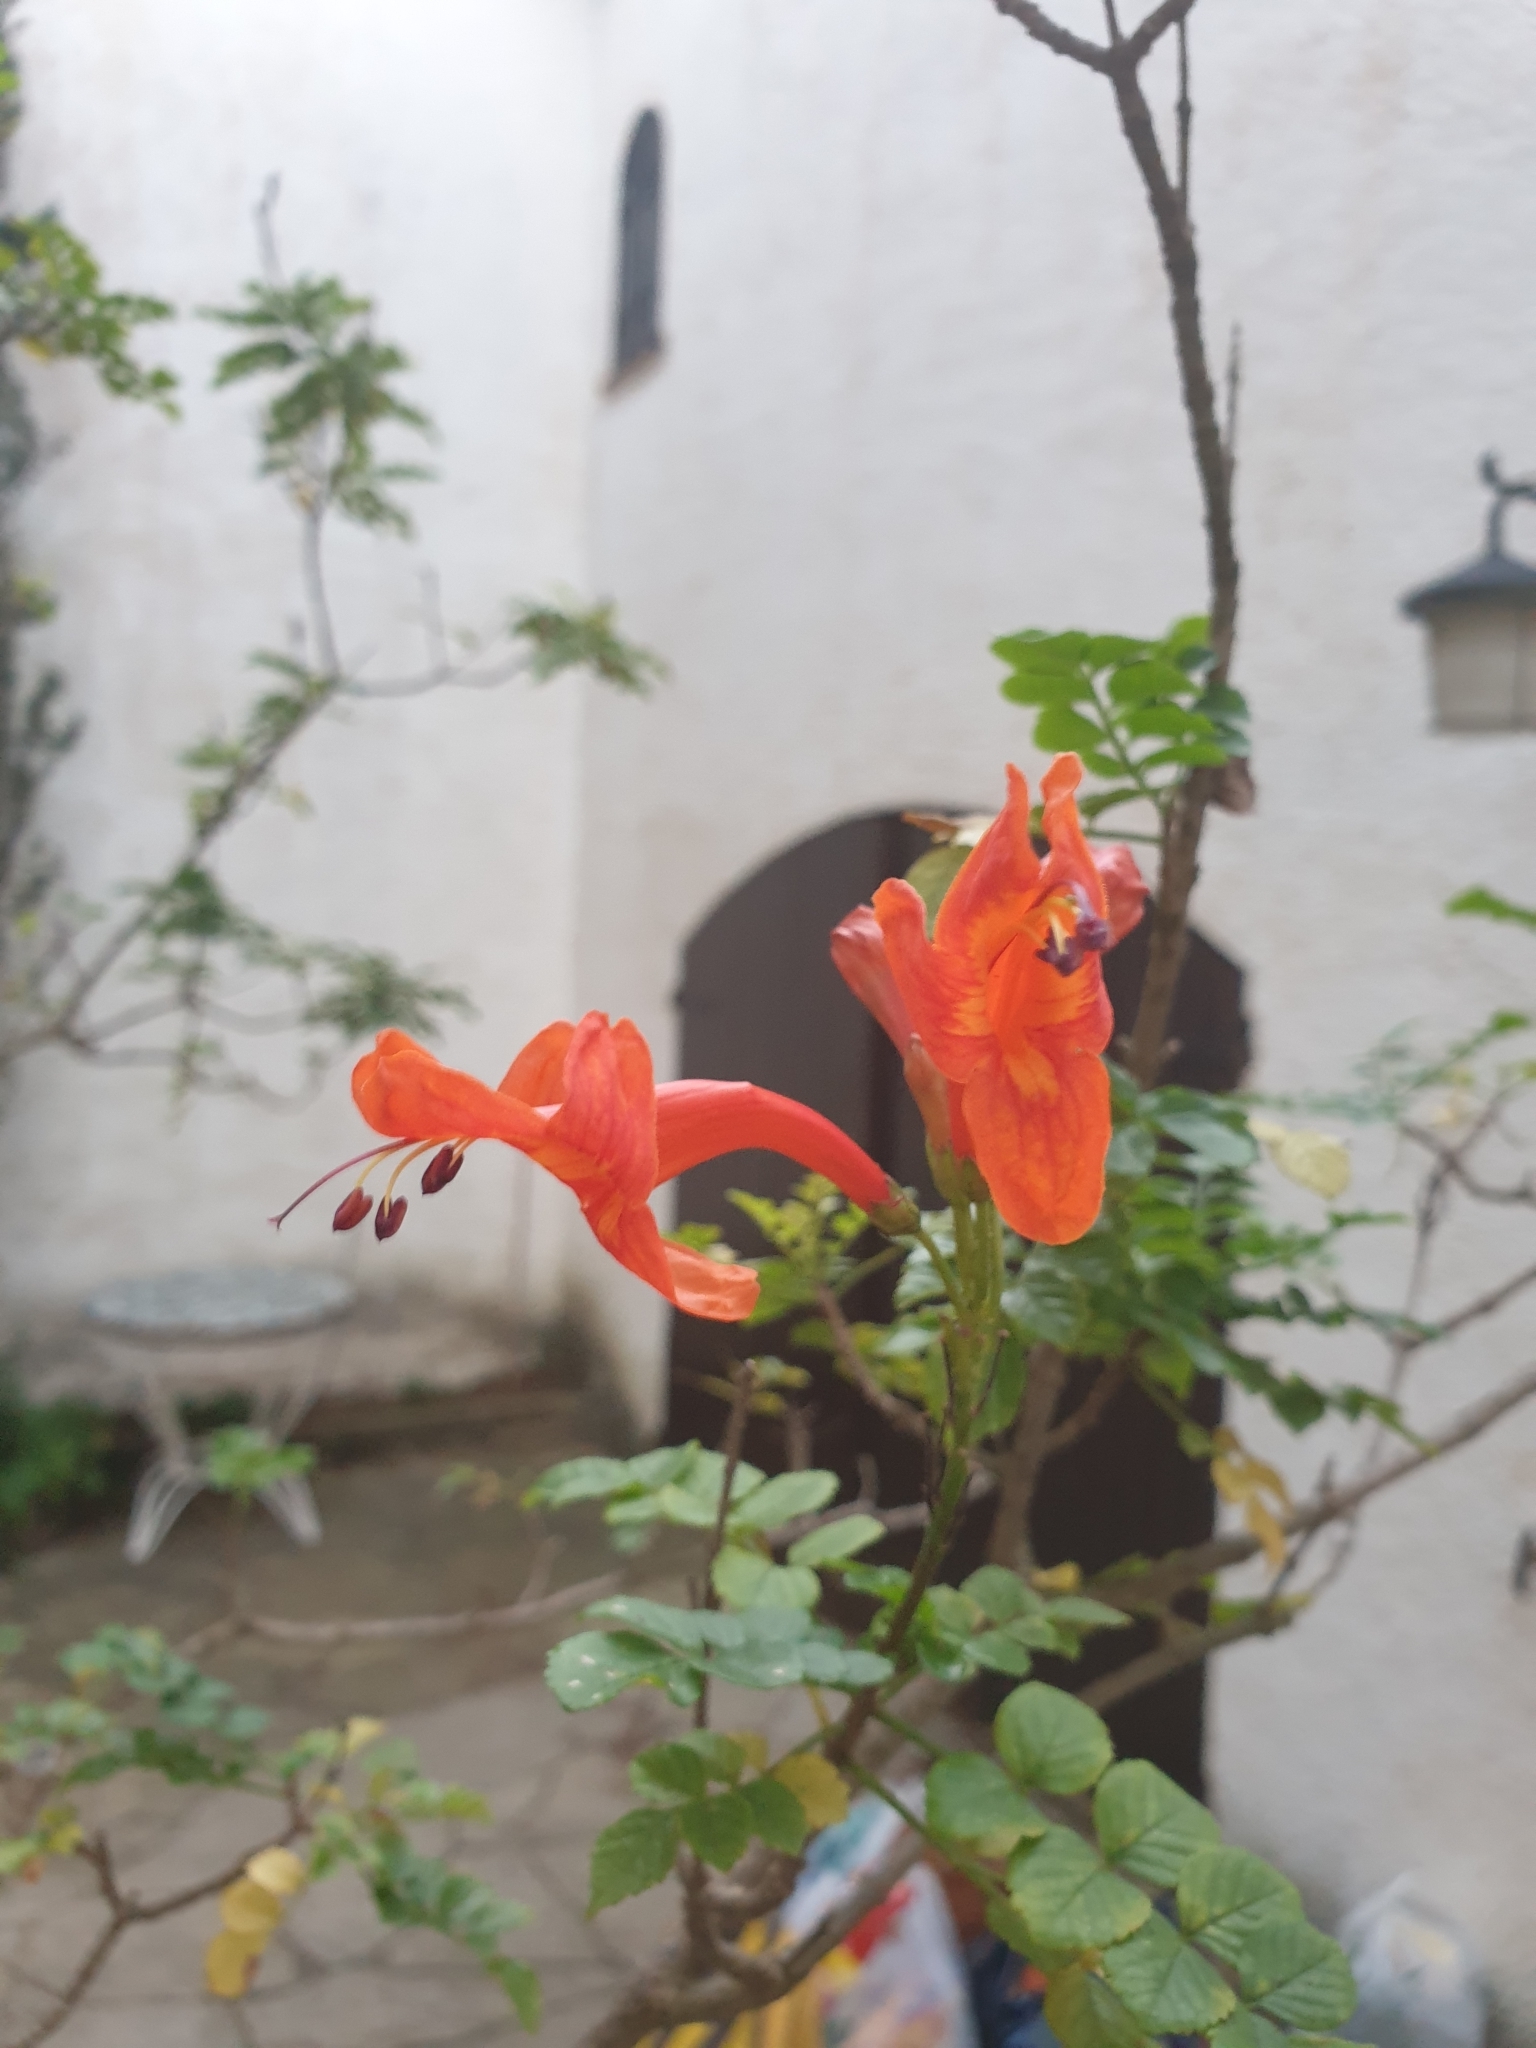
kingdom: Plantae
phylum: Tracheophyta
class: Magnoliopsida
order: Lamiales
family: Bignoniaceae
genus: Tecomaria
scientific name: Tecomaria capensis
